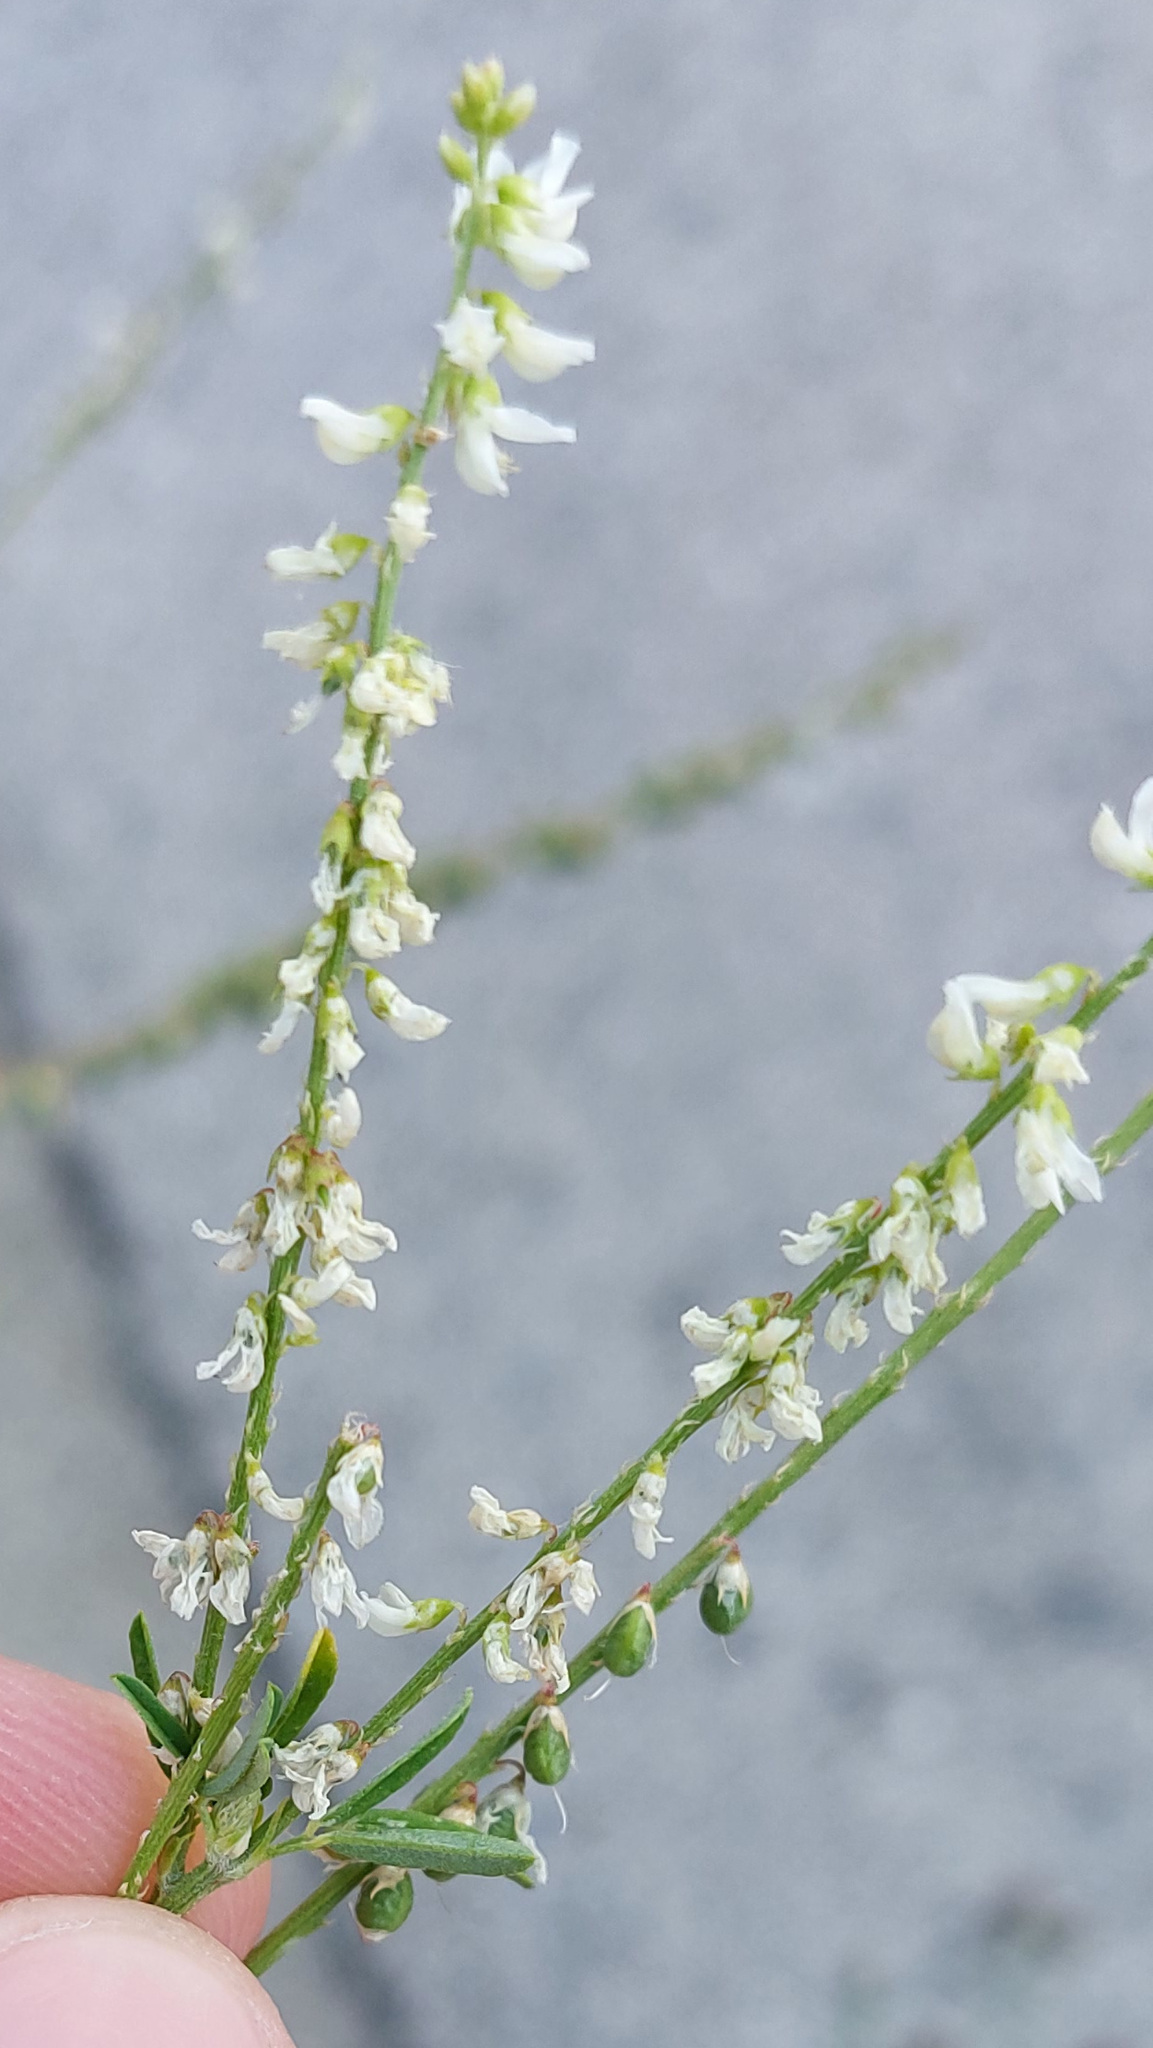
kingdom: Plantae
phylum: Tracheophyta
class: Magnoliopsida
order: Fabales
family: Fabaceae
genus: Melilotus
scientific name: Melilotus albus
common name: White melilot
